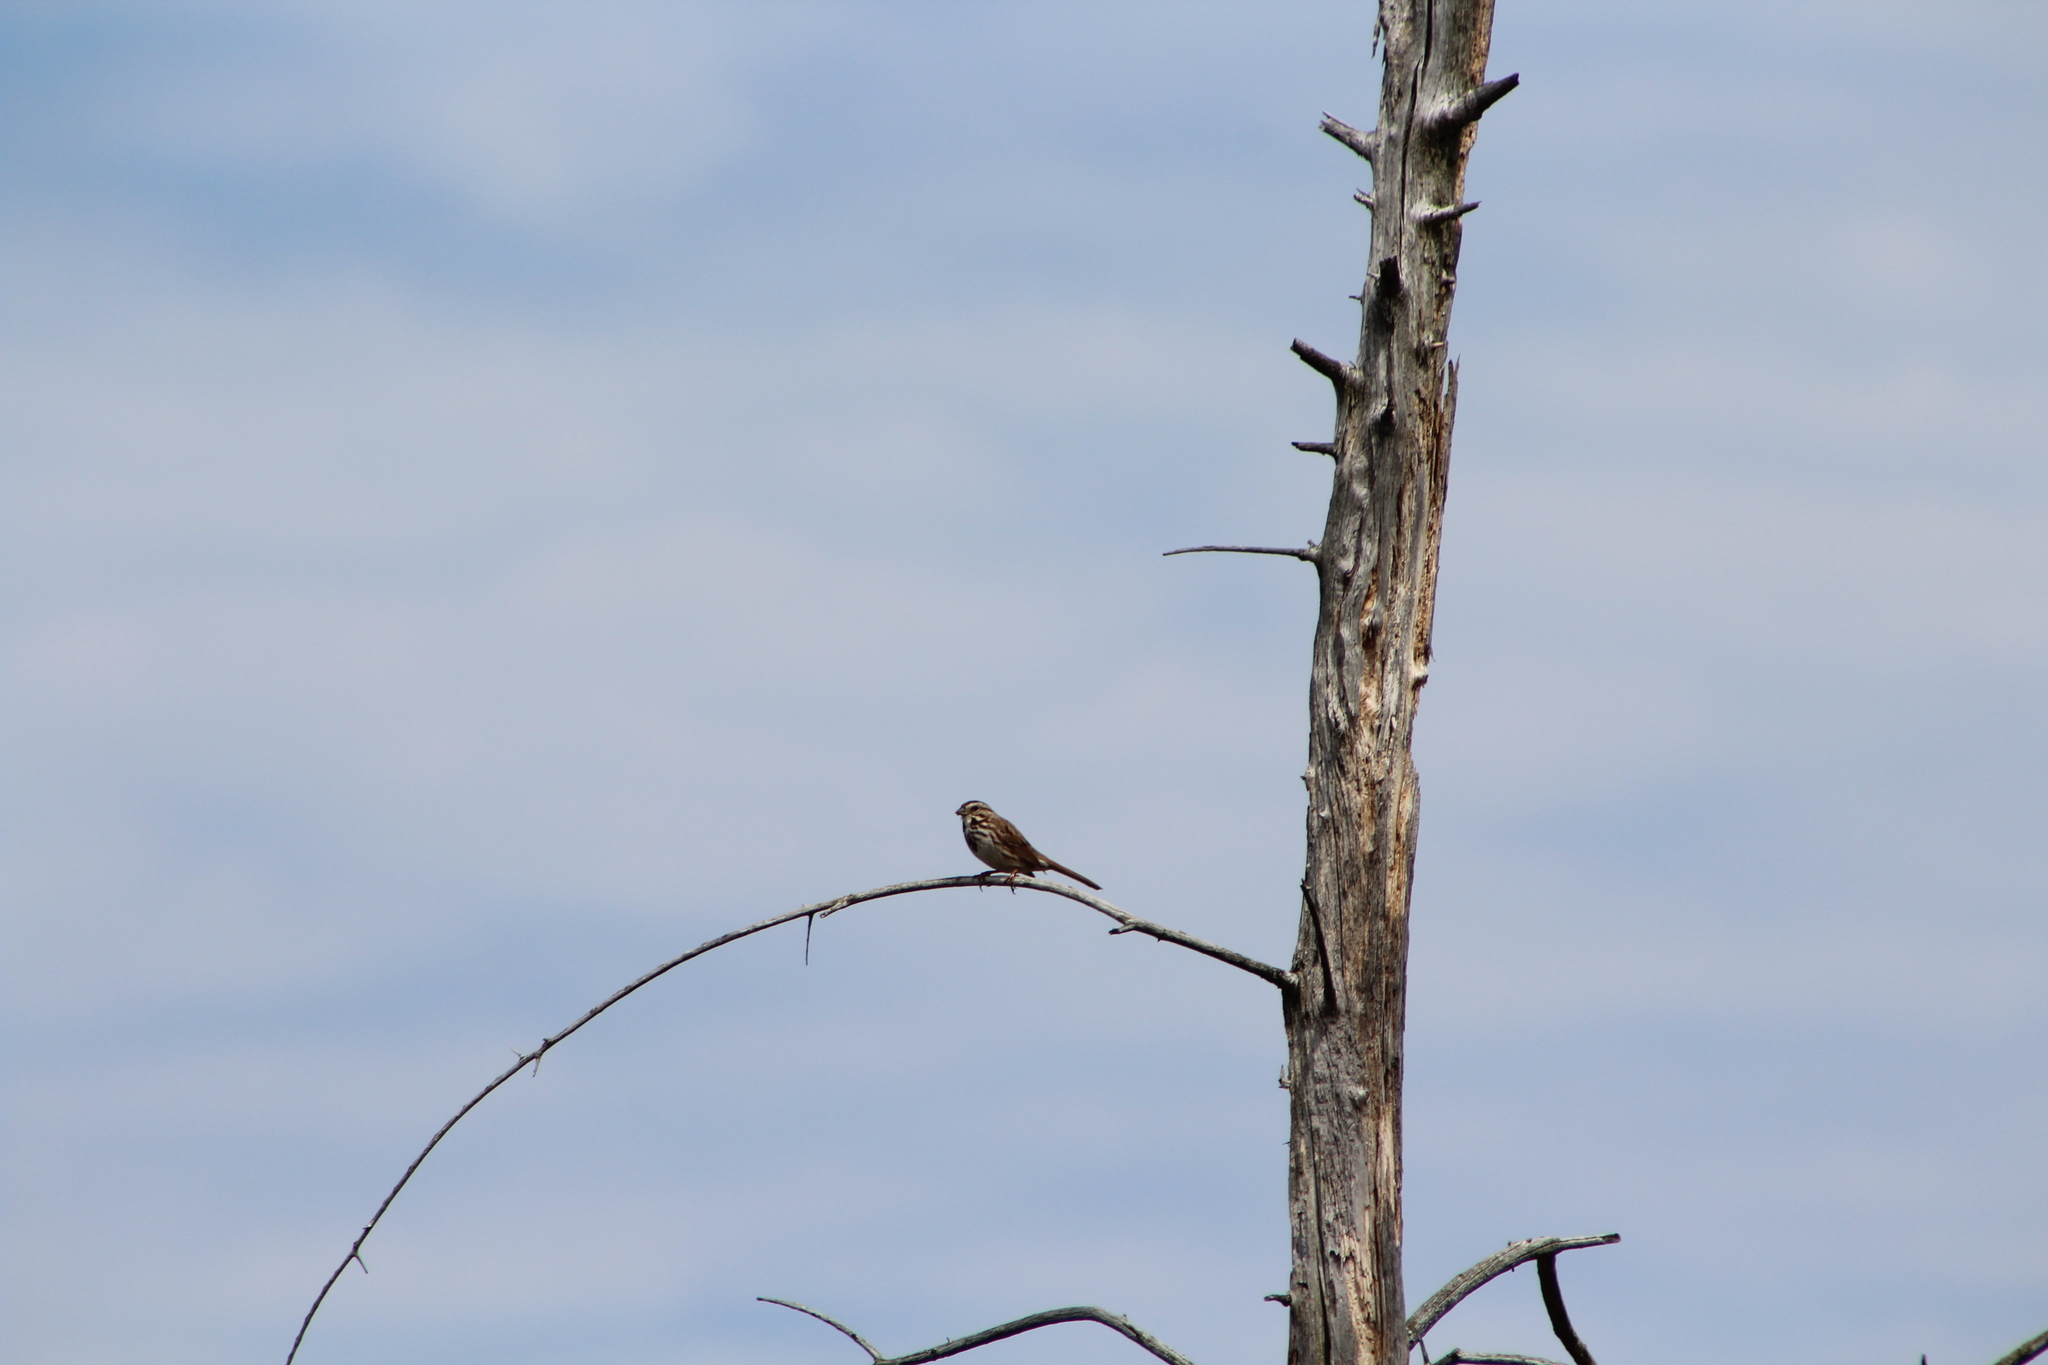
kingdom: Animalia
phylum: Chordata
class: Aves
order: Passeriformes
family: Passerellidae
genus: Melospiza
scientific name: Melospiza melodia
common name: Song sparrow
